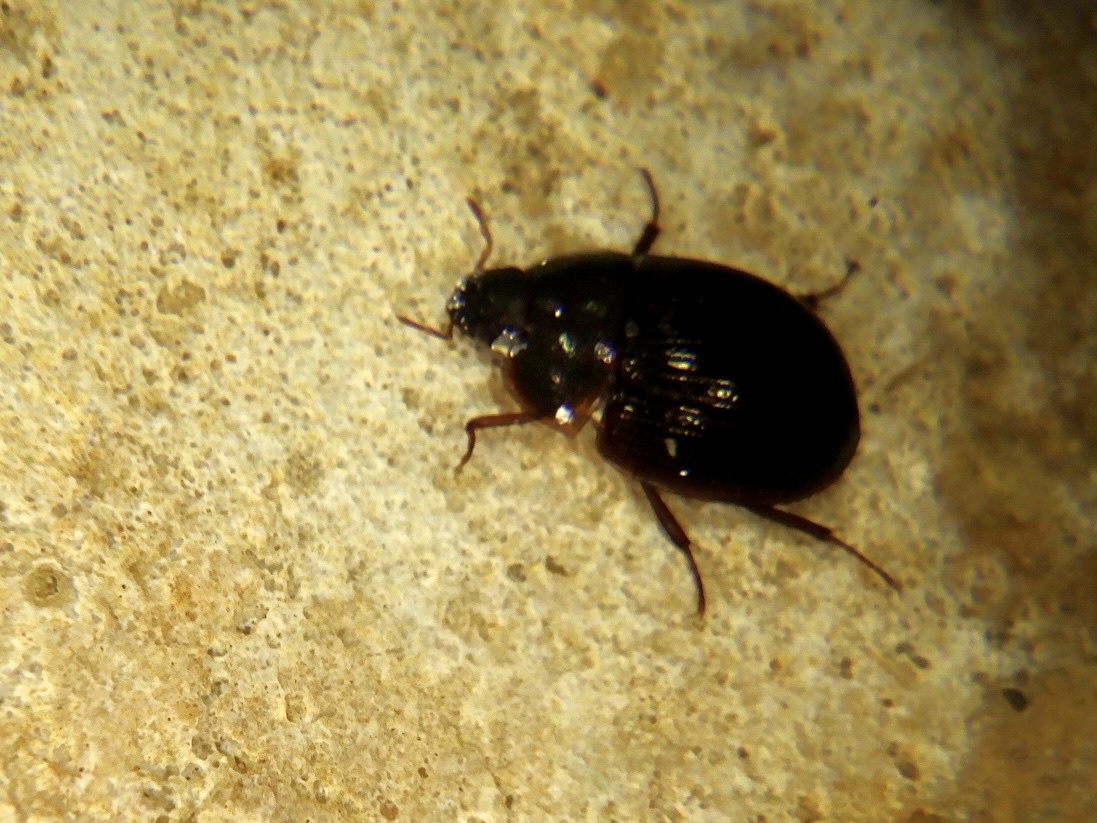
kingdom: Animalia
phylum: Arthropoda
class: Insecta
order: Coleoptera
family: Hydrophilidae
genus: Hydrocassis
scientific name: Hydrocassis lacustris
